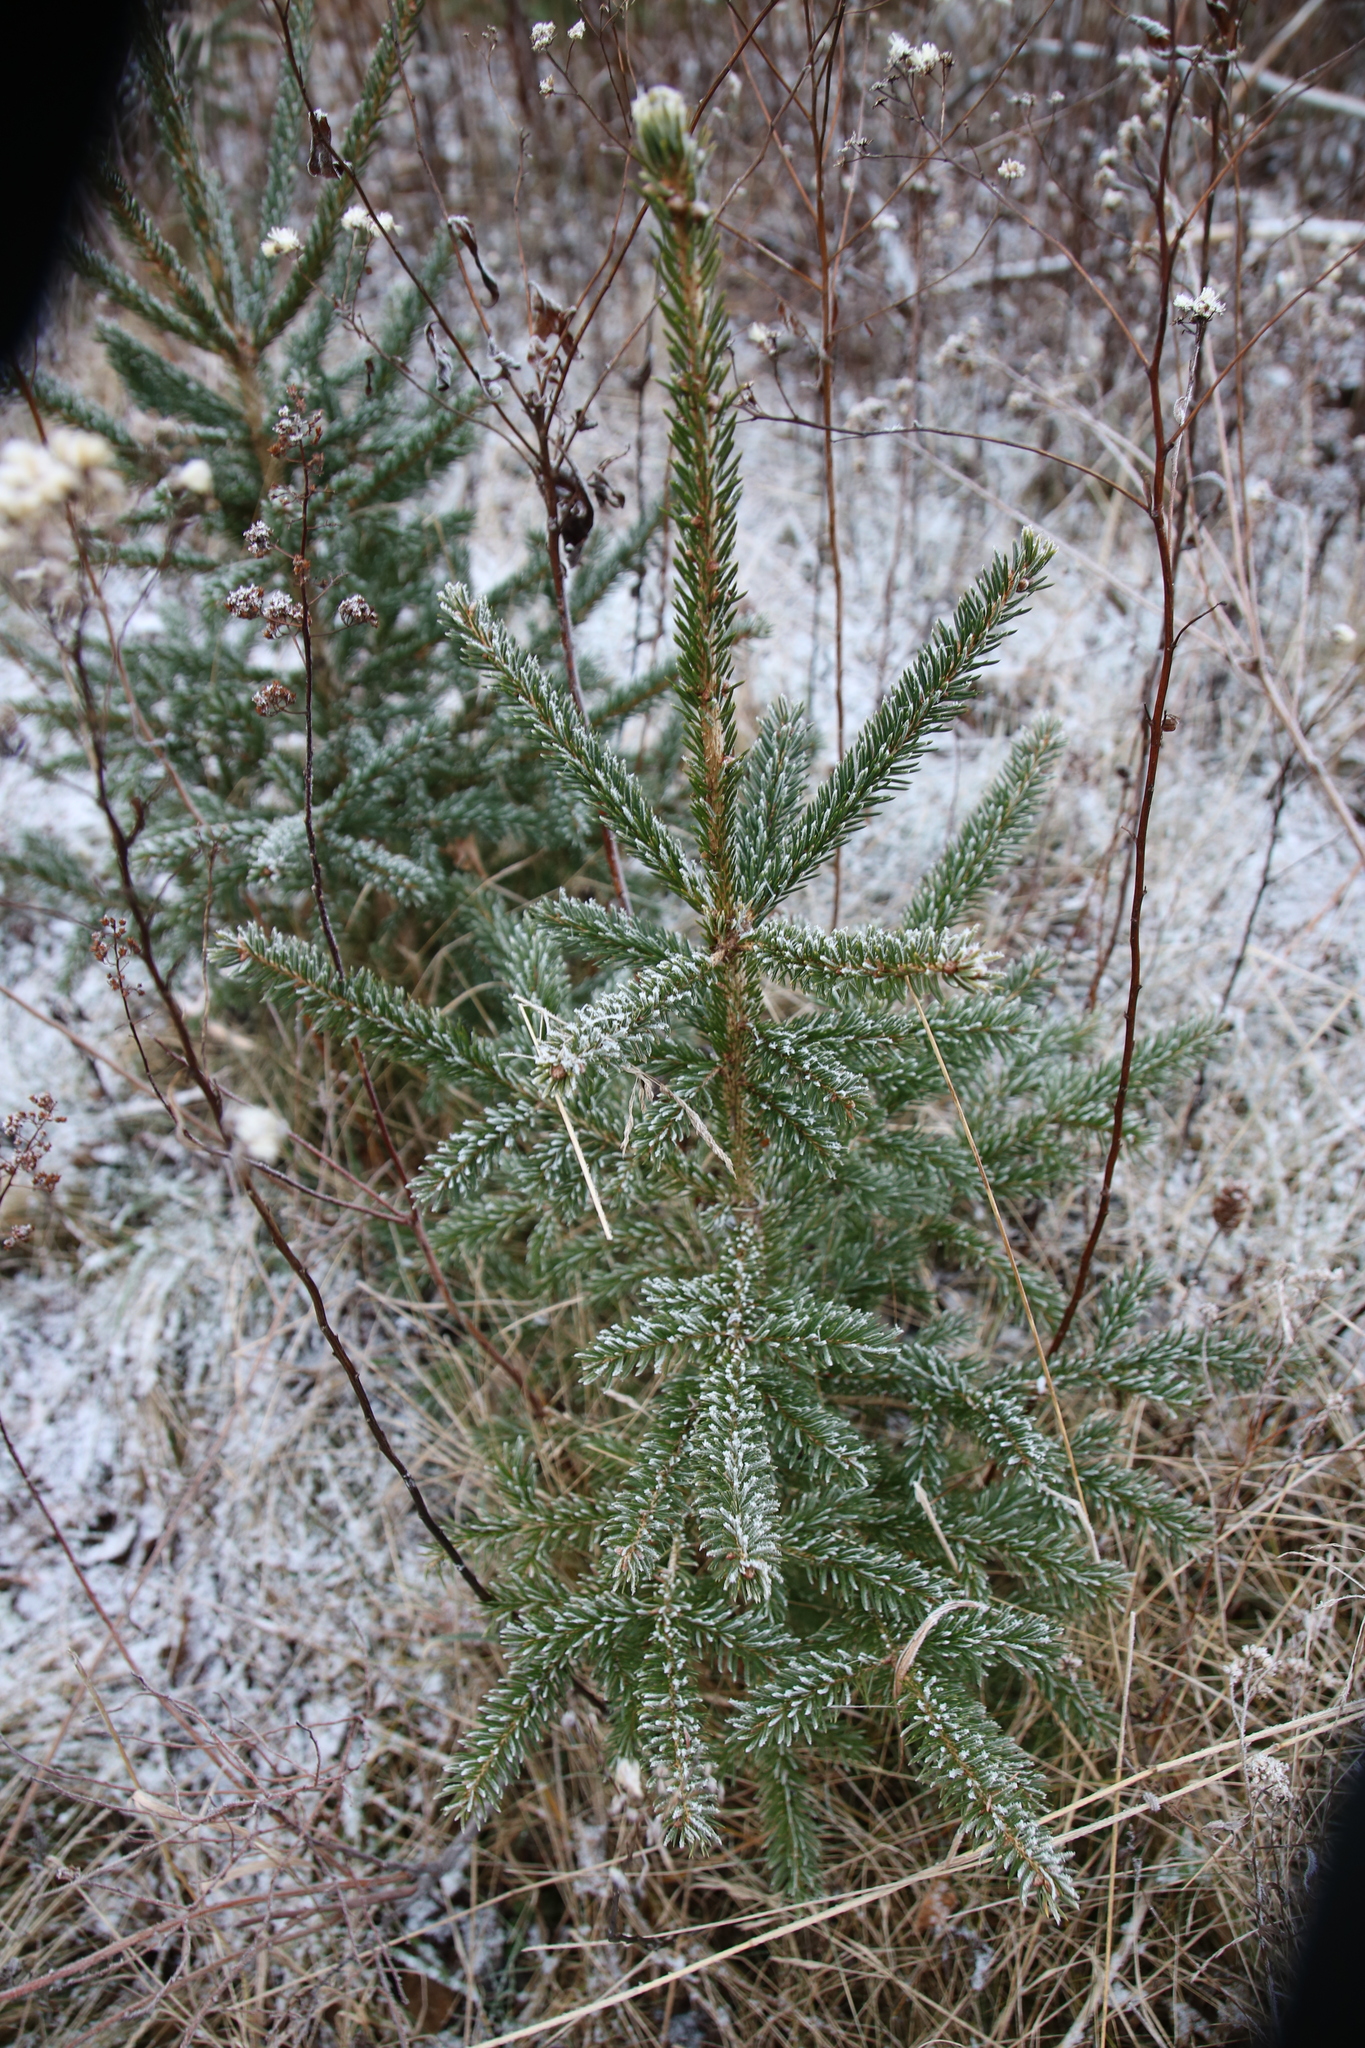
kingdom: Plantae
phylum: Tracheophyta
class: Pinopsida
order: Pinales
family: Pinaceae
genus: Picea
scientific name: Picea glauca
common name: White spruce
